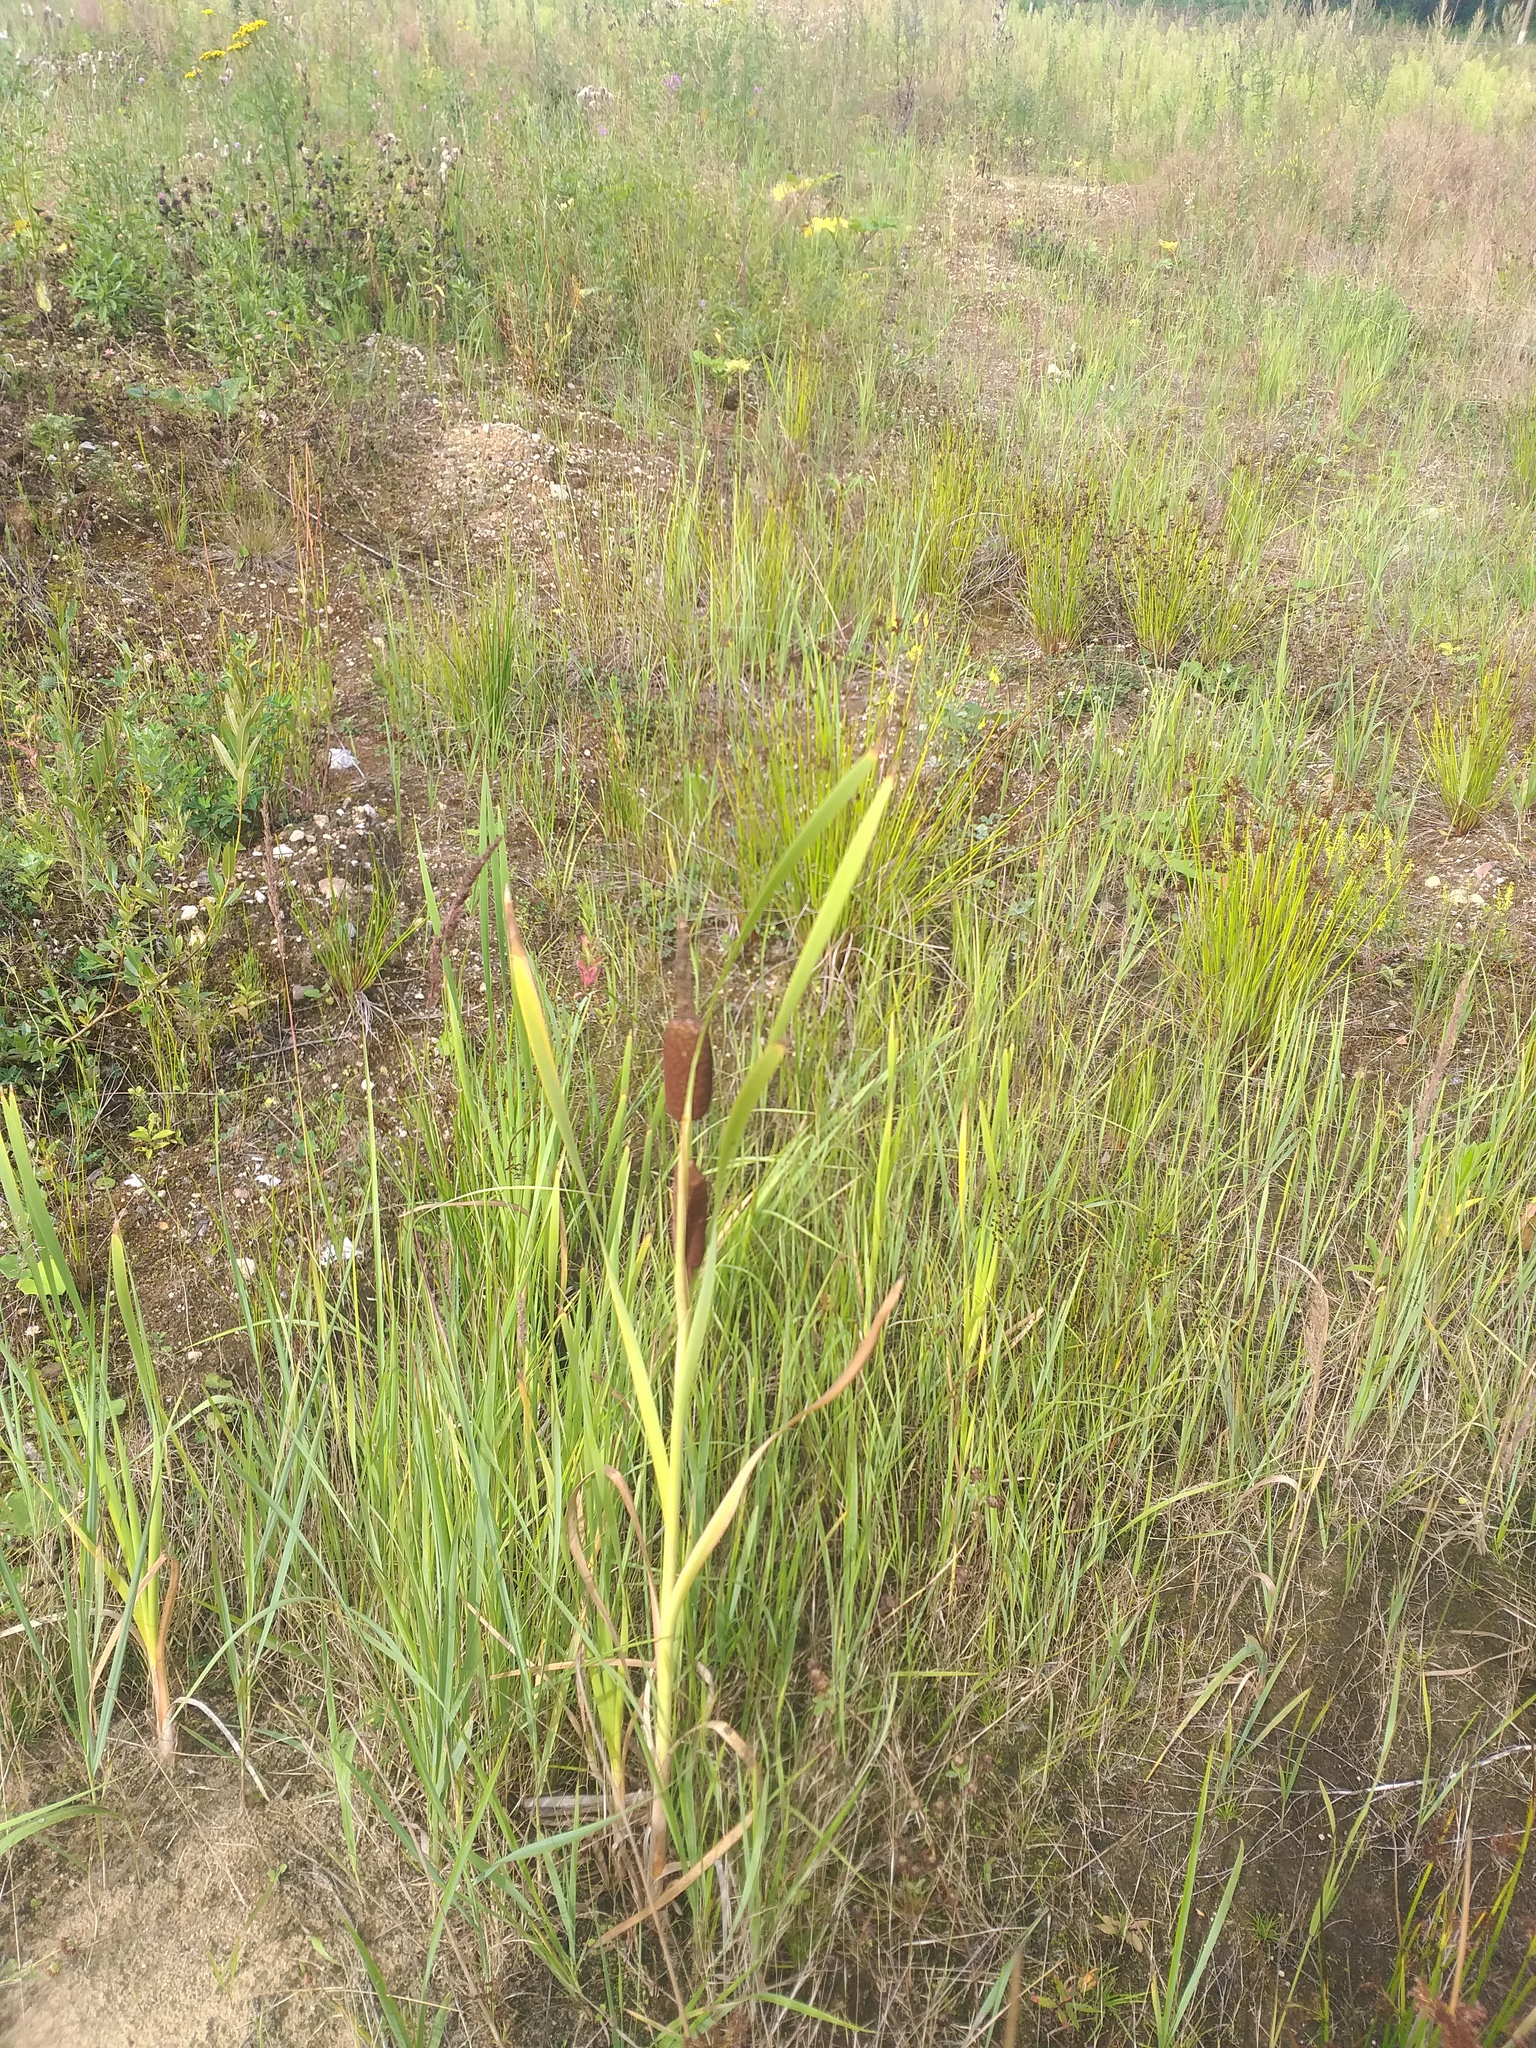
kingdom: Plantae
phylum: Tracheophyta
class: Liliopsida
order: Poales
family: Typhaceae
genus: Typha
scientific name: Typha latifolia
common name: Broadleaf cattail
